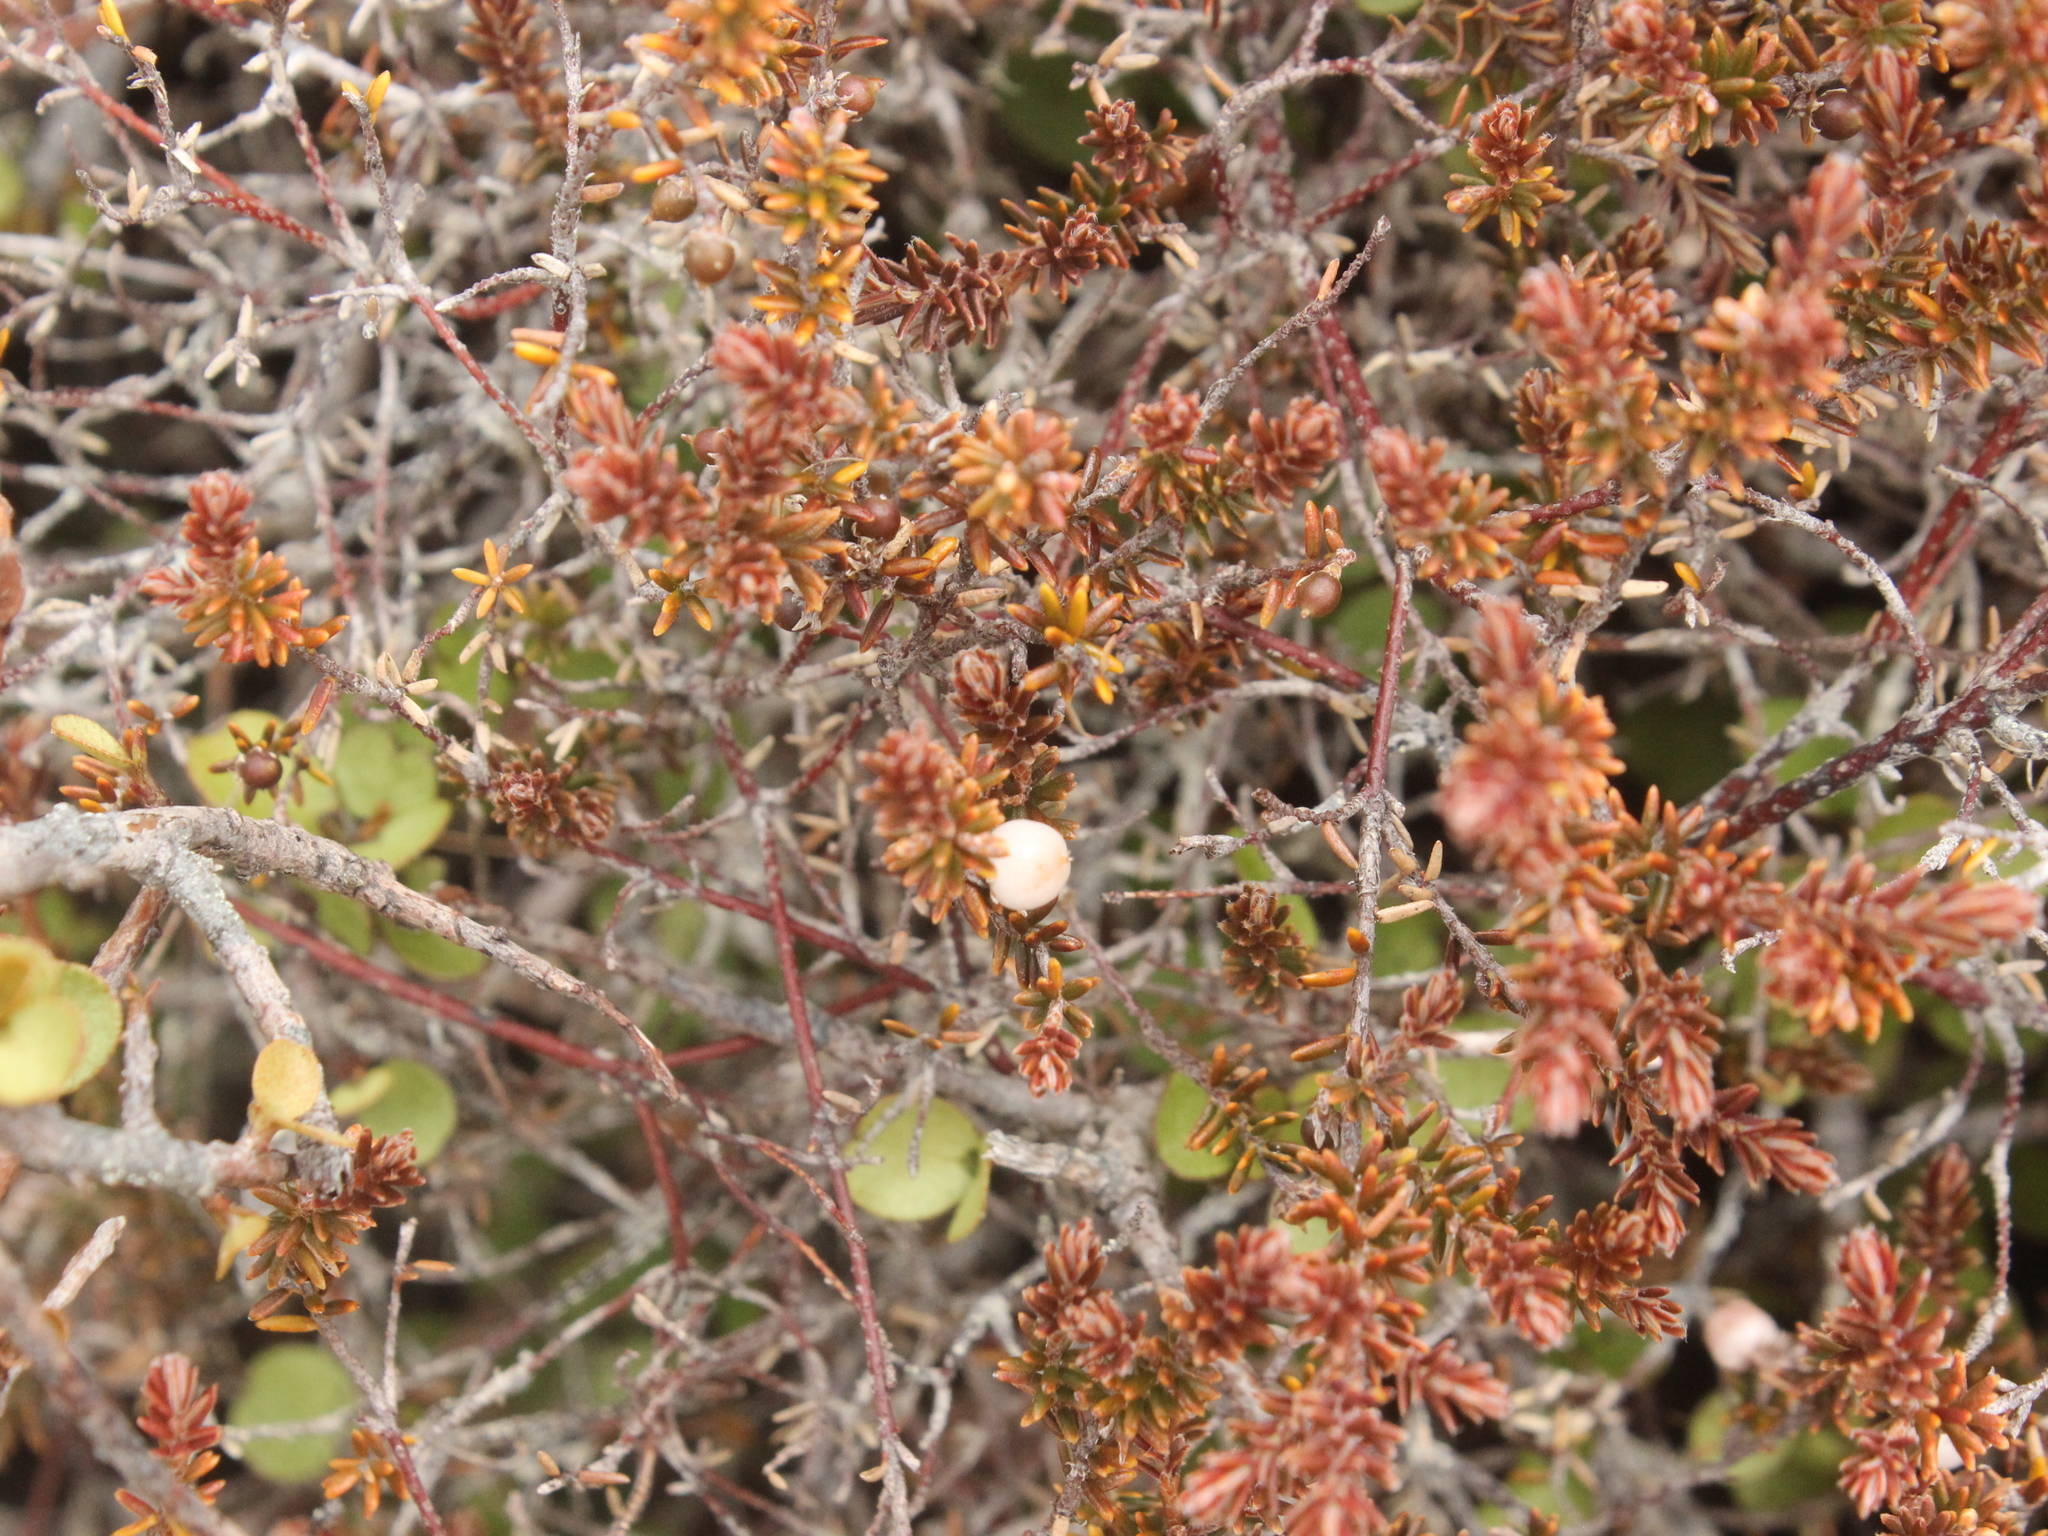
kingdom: Plantae
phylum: Tracheophyta
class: Magnoliopsida
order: Ericales
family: Ericaceae
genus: Androstoma
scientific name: Androstoma empetrifolia
